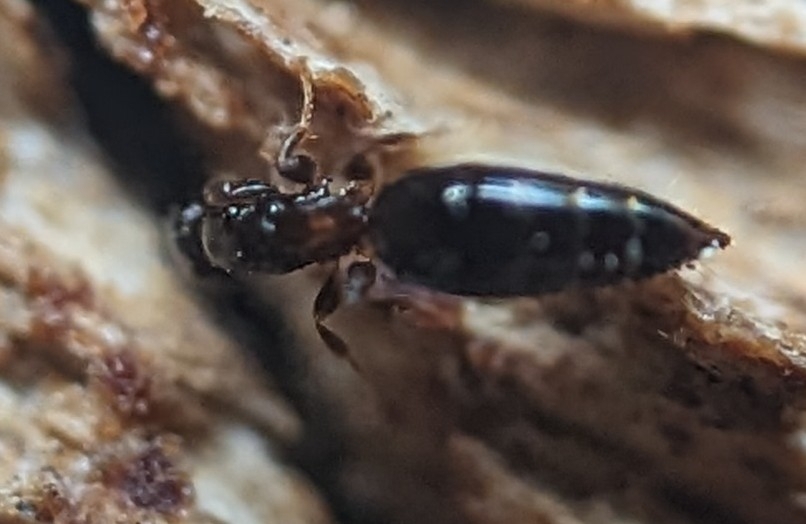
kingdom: Animalia
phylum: Arthropoda
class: Insecta
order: Hymenoptera
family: Bethylidae
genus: Sclerodermus
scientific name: Sclerodermus
